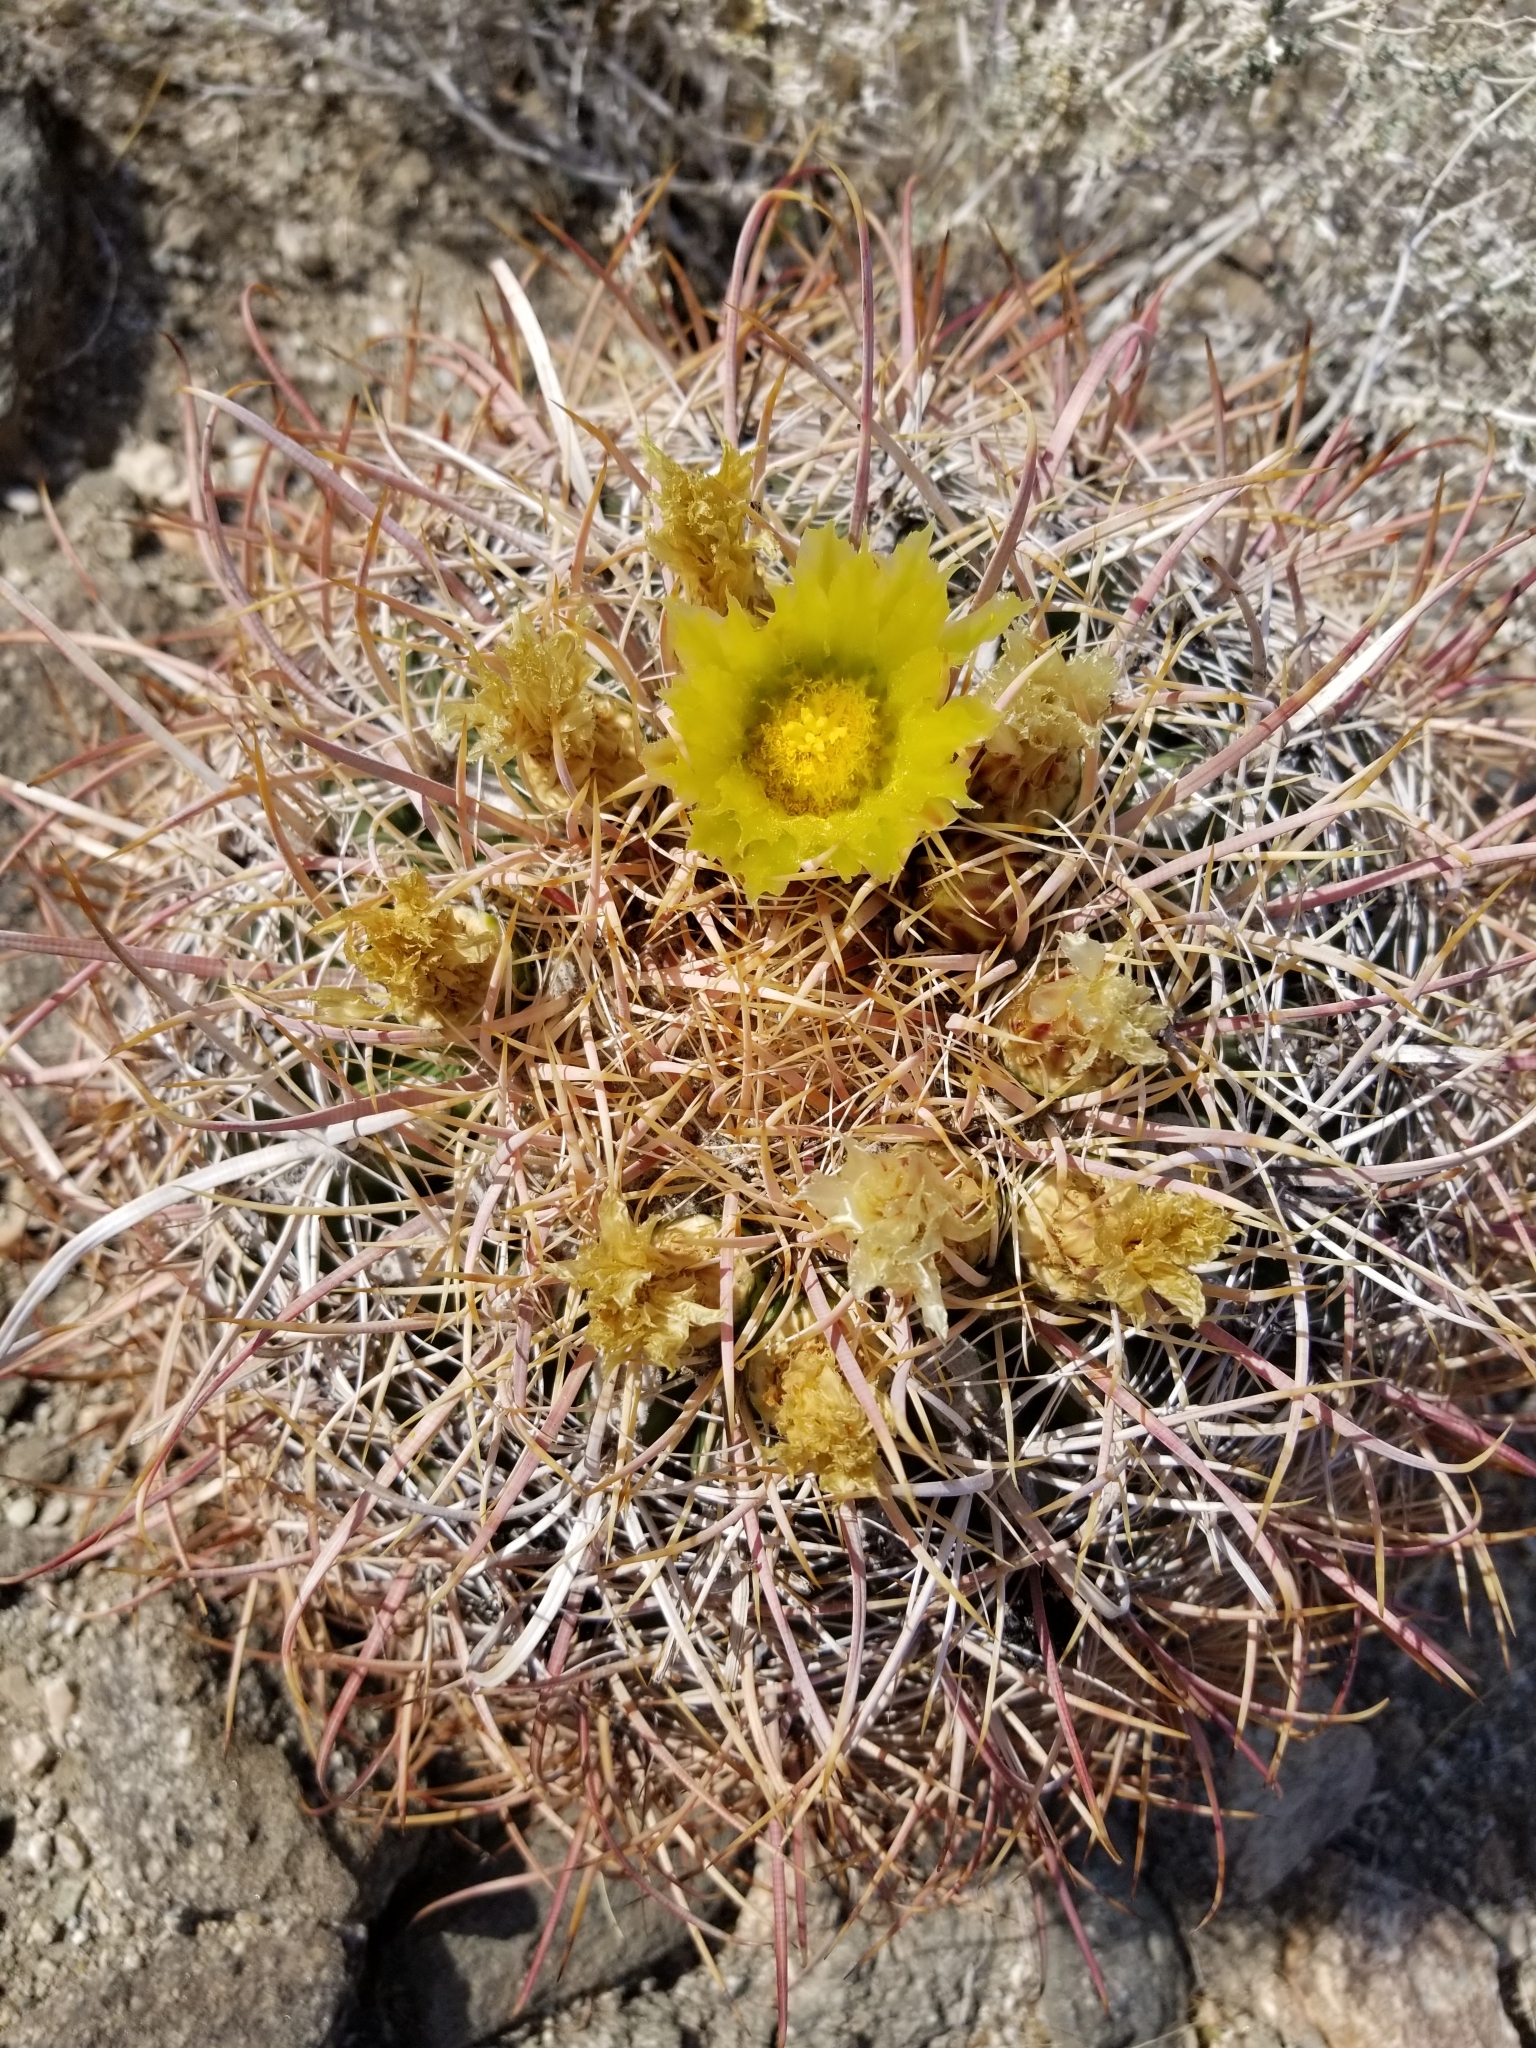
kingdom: Plantae
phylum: Tracheophyta
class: Magnoliopsida
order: Caryophyllales
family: Cactaceae
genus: Ferocactus
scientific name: Ferocactus cylindraceus
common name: California barrel cactus
